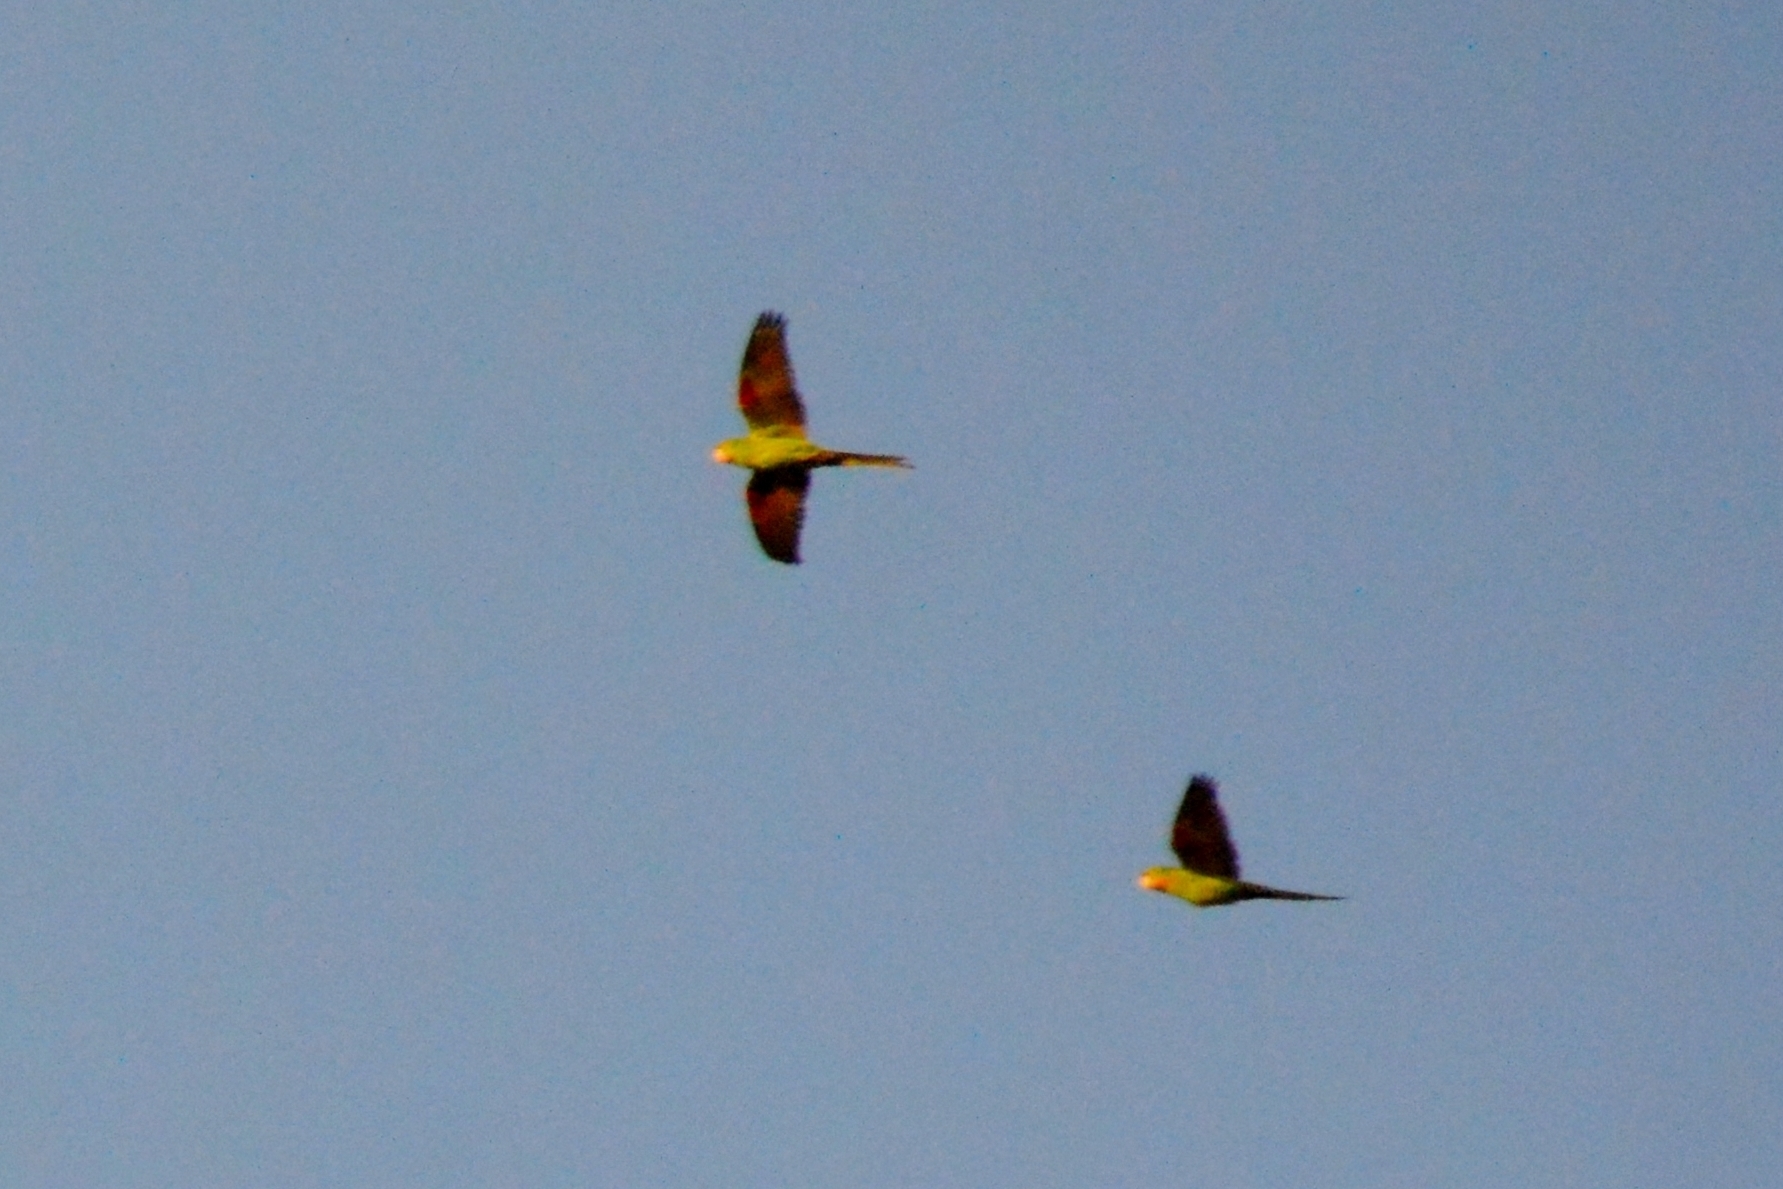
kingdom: Animalia
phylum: Chordata
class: Aves
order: Psittaciformes
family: Psittacidae
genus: Aratinga
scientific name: Aratinga leucophthalma
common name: White-eyed parakeet
